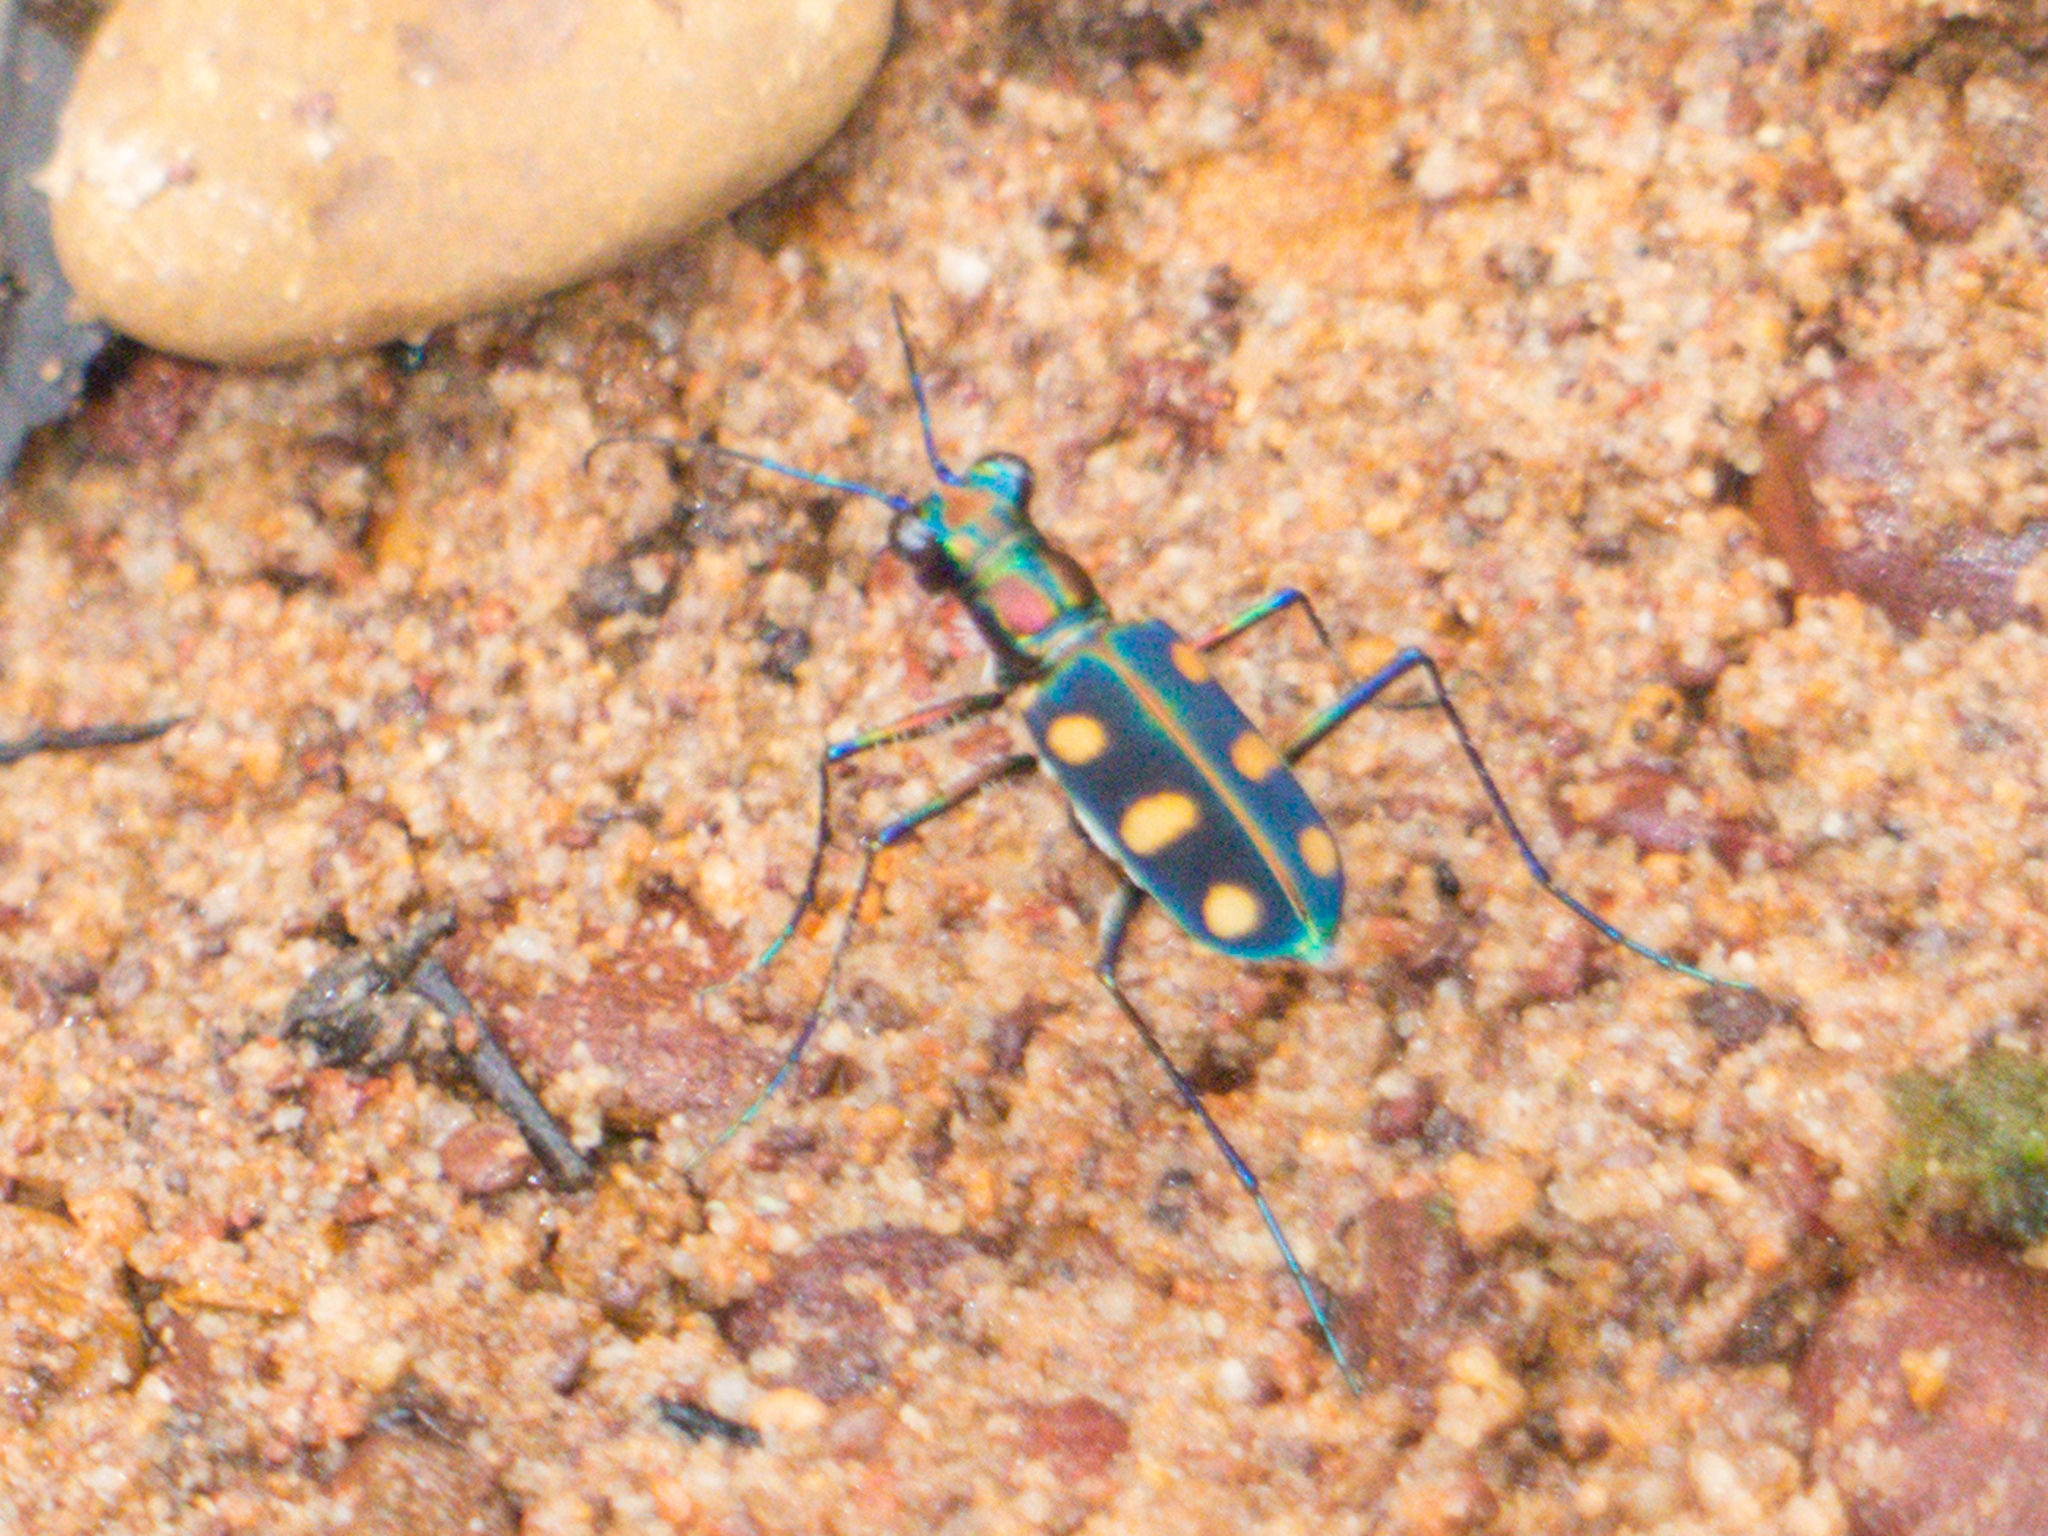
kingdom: Animalia
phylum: Arthropoda
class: Insecta
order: Coleoptera
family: Carabidae
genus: Cicindela
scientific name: Cicindela juxtata
